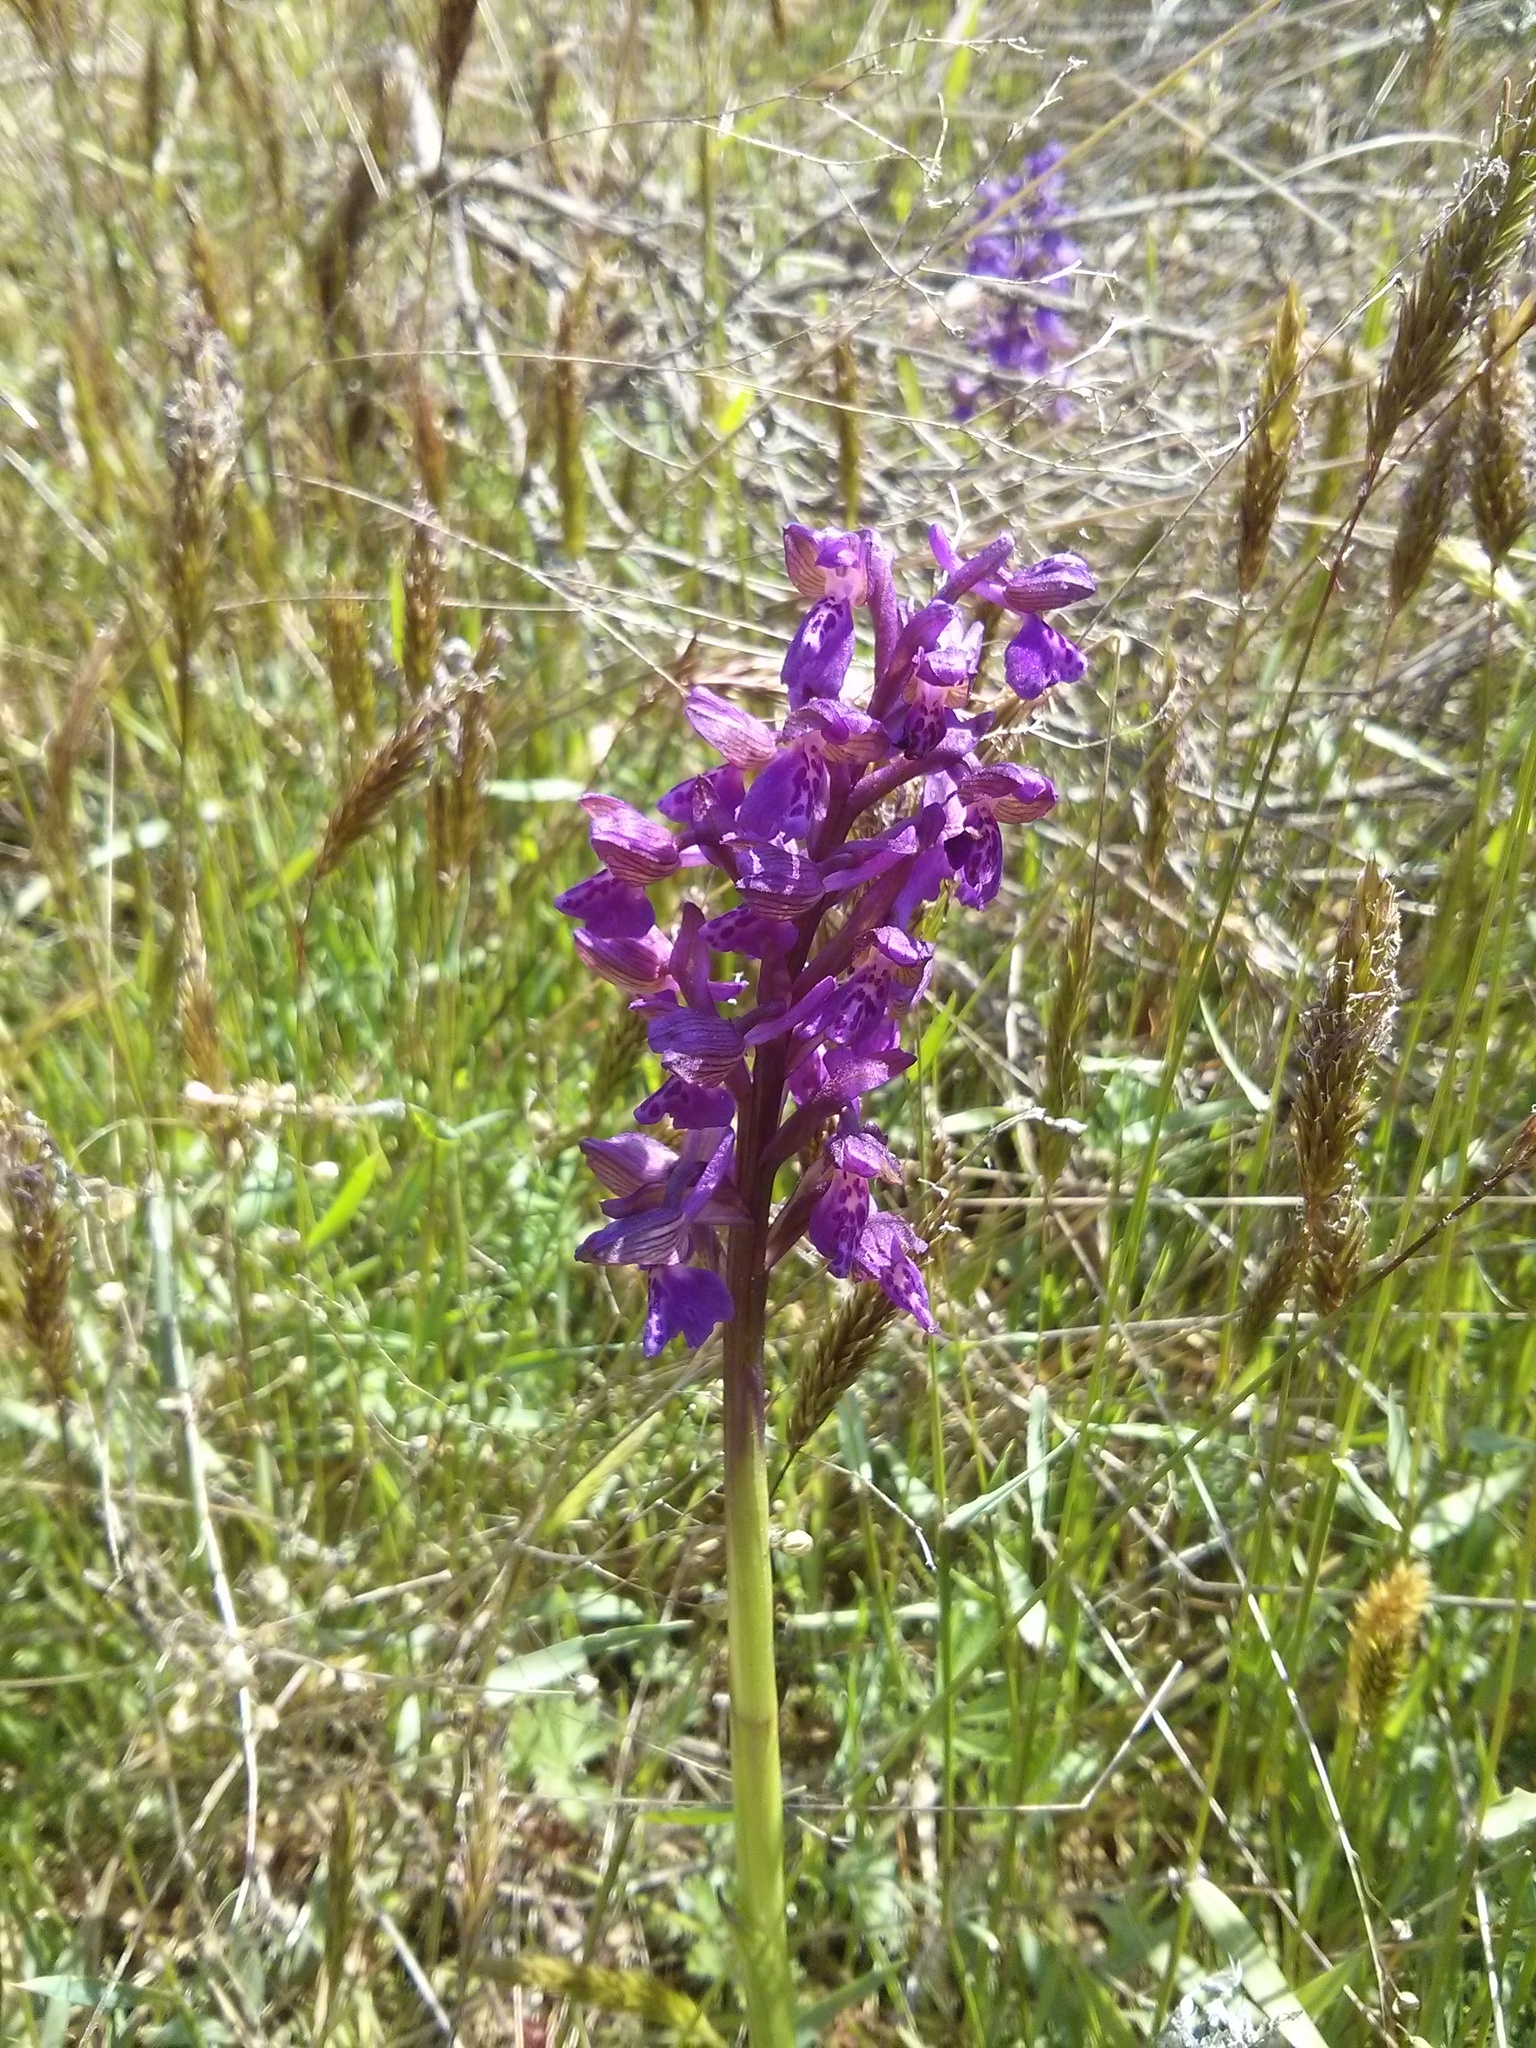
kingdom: Plantae
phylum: Tracheophyta
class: Liliopsida
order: Asparagales
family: Orchidaceae
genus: Anacamptis
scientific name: Anacamptis morio
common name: Green-winged orchid
